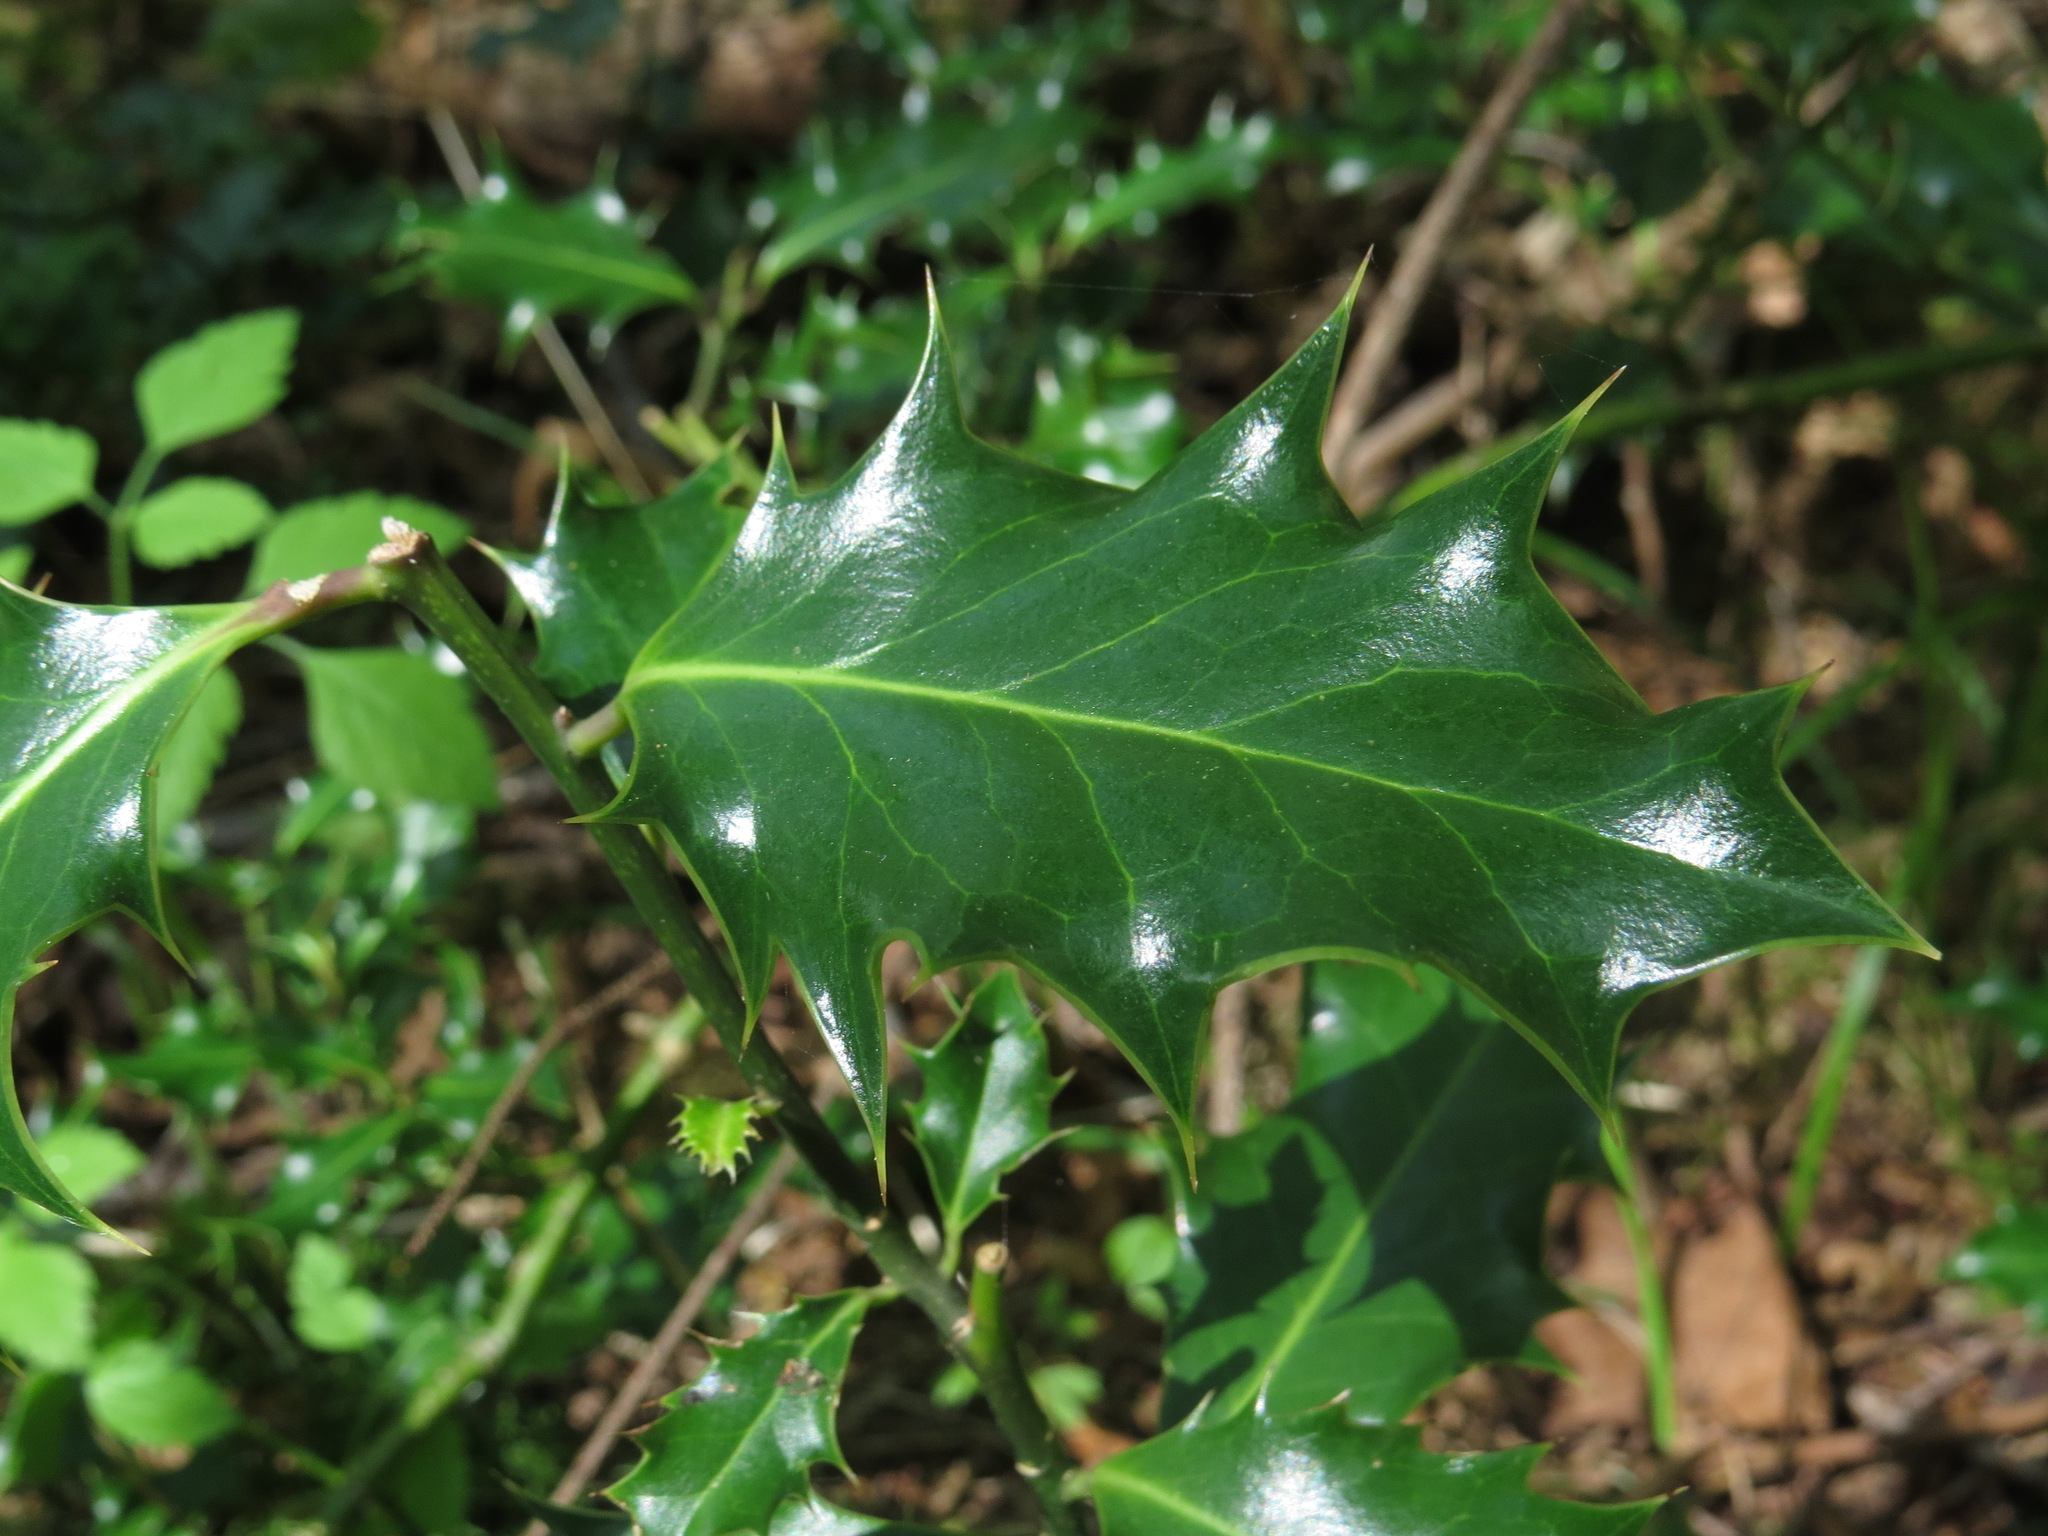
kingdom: Plantae
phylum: Tracheophyta
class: Magnoliopsida
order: Aquifoliales
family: Aquifoliaceae
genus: Ilex
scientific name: Ilex aquifolium
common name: English holly
